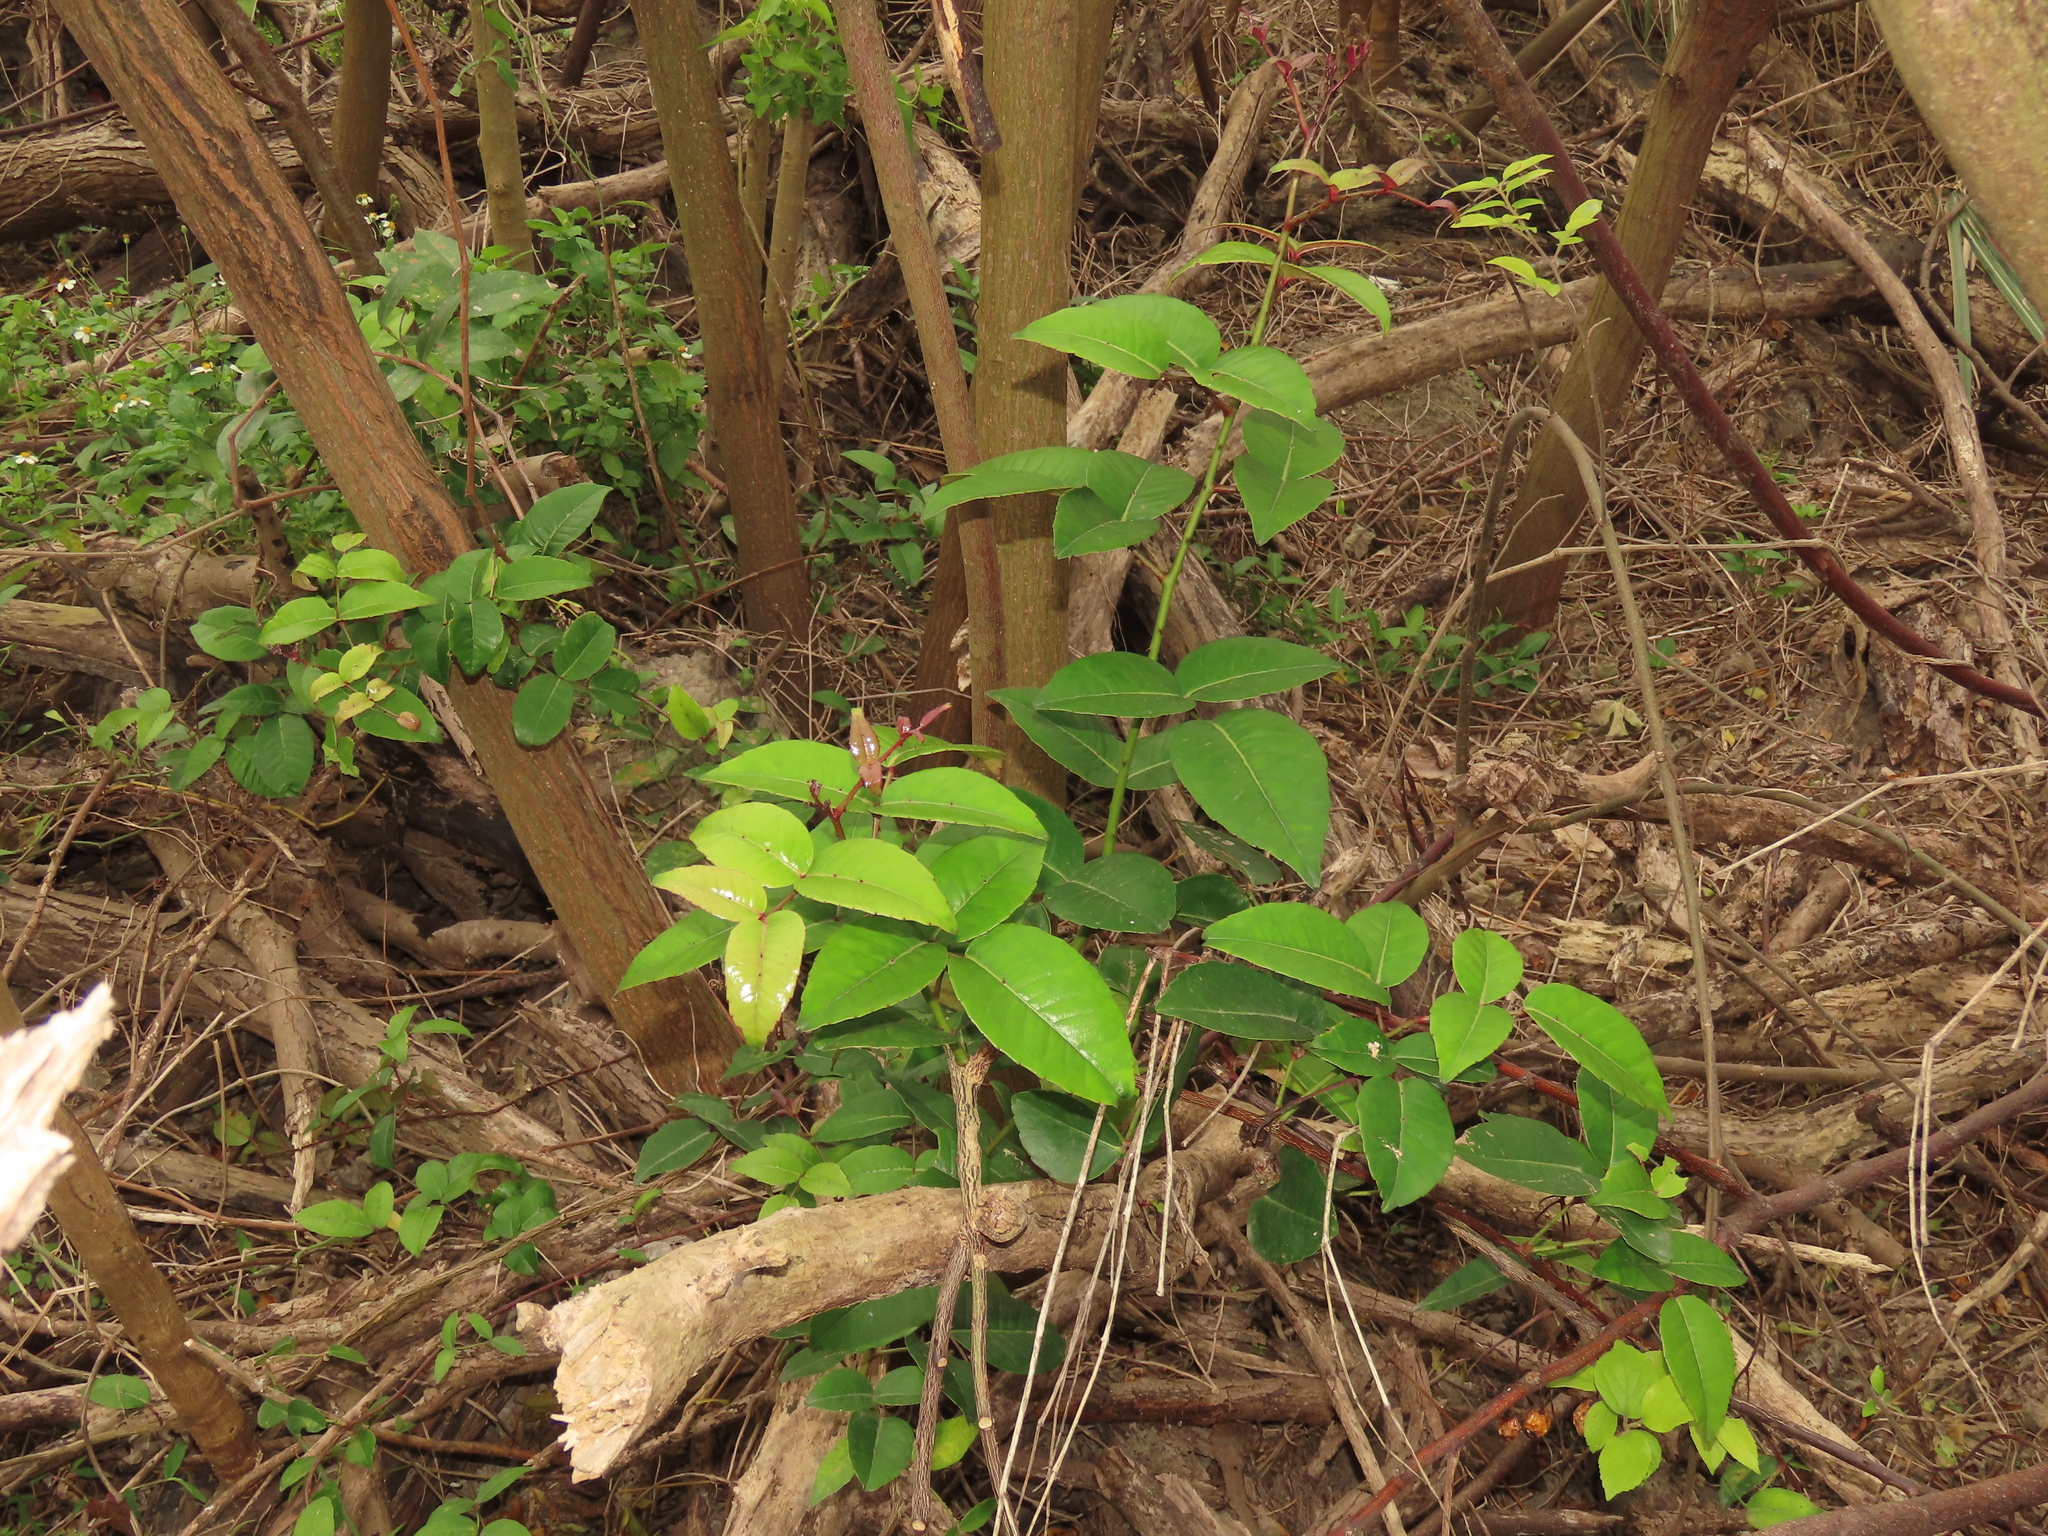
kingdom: Plantae
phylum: Tracheophyta
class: Magnoliopsida
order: Sapindales
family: Rutaceae
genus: Zanthoxylum
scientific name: Zanthoxylum nitidum
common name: Shiny-leaf prickly-ash
